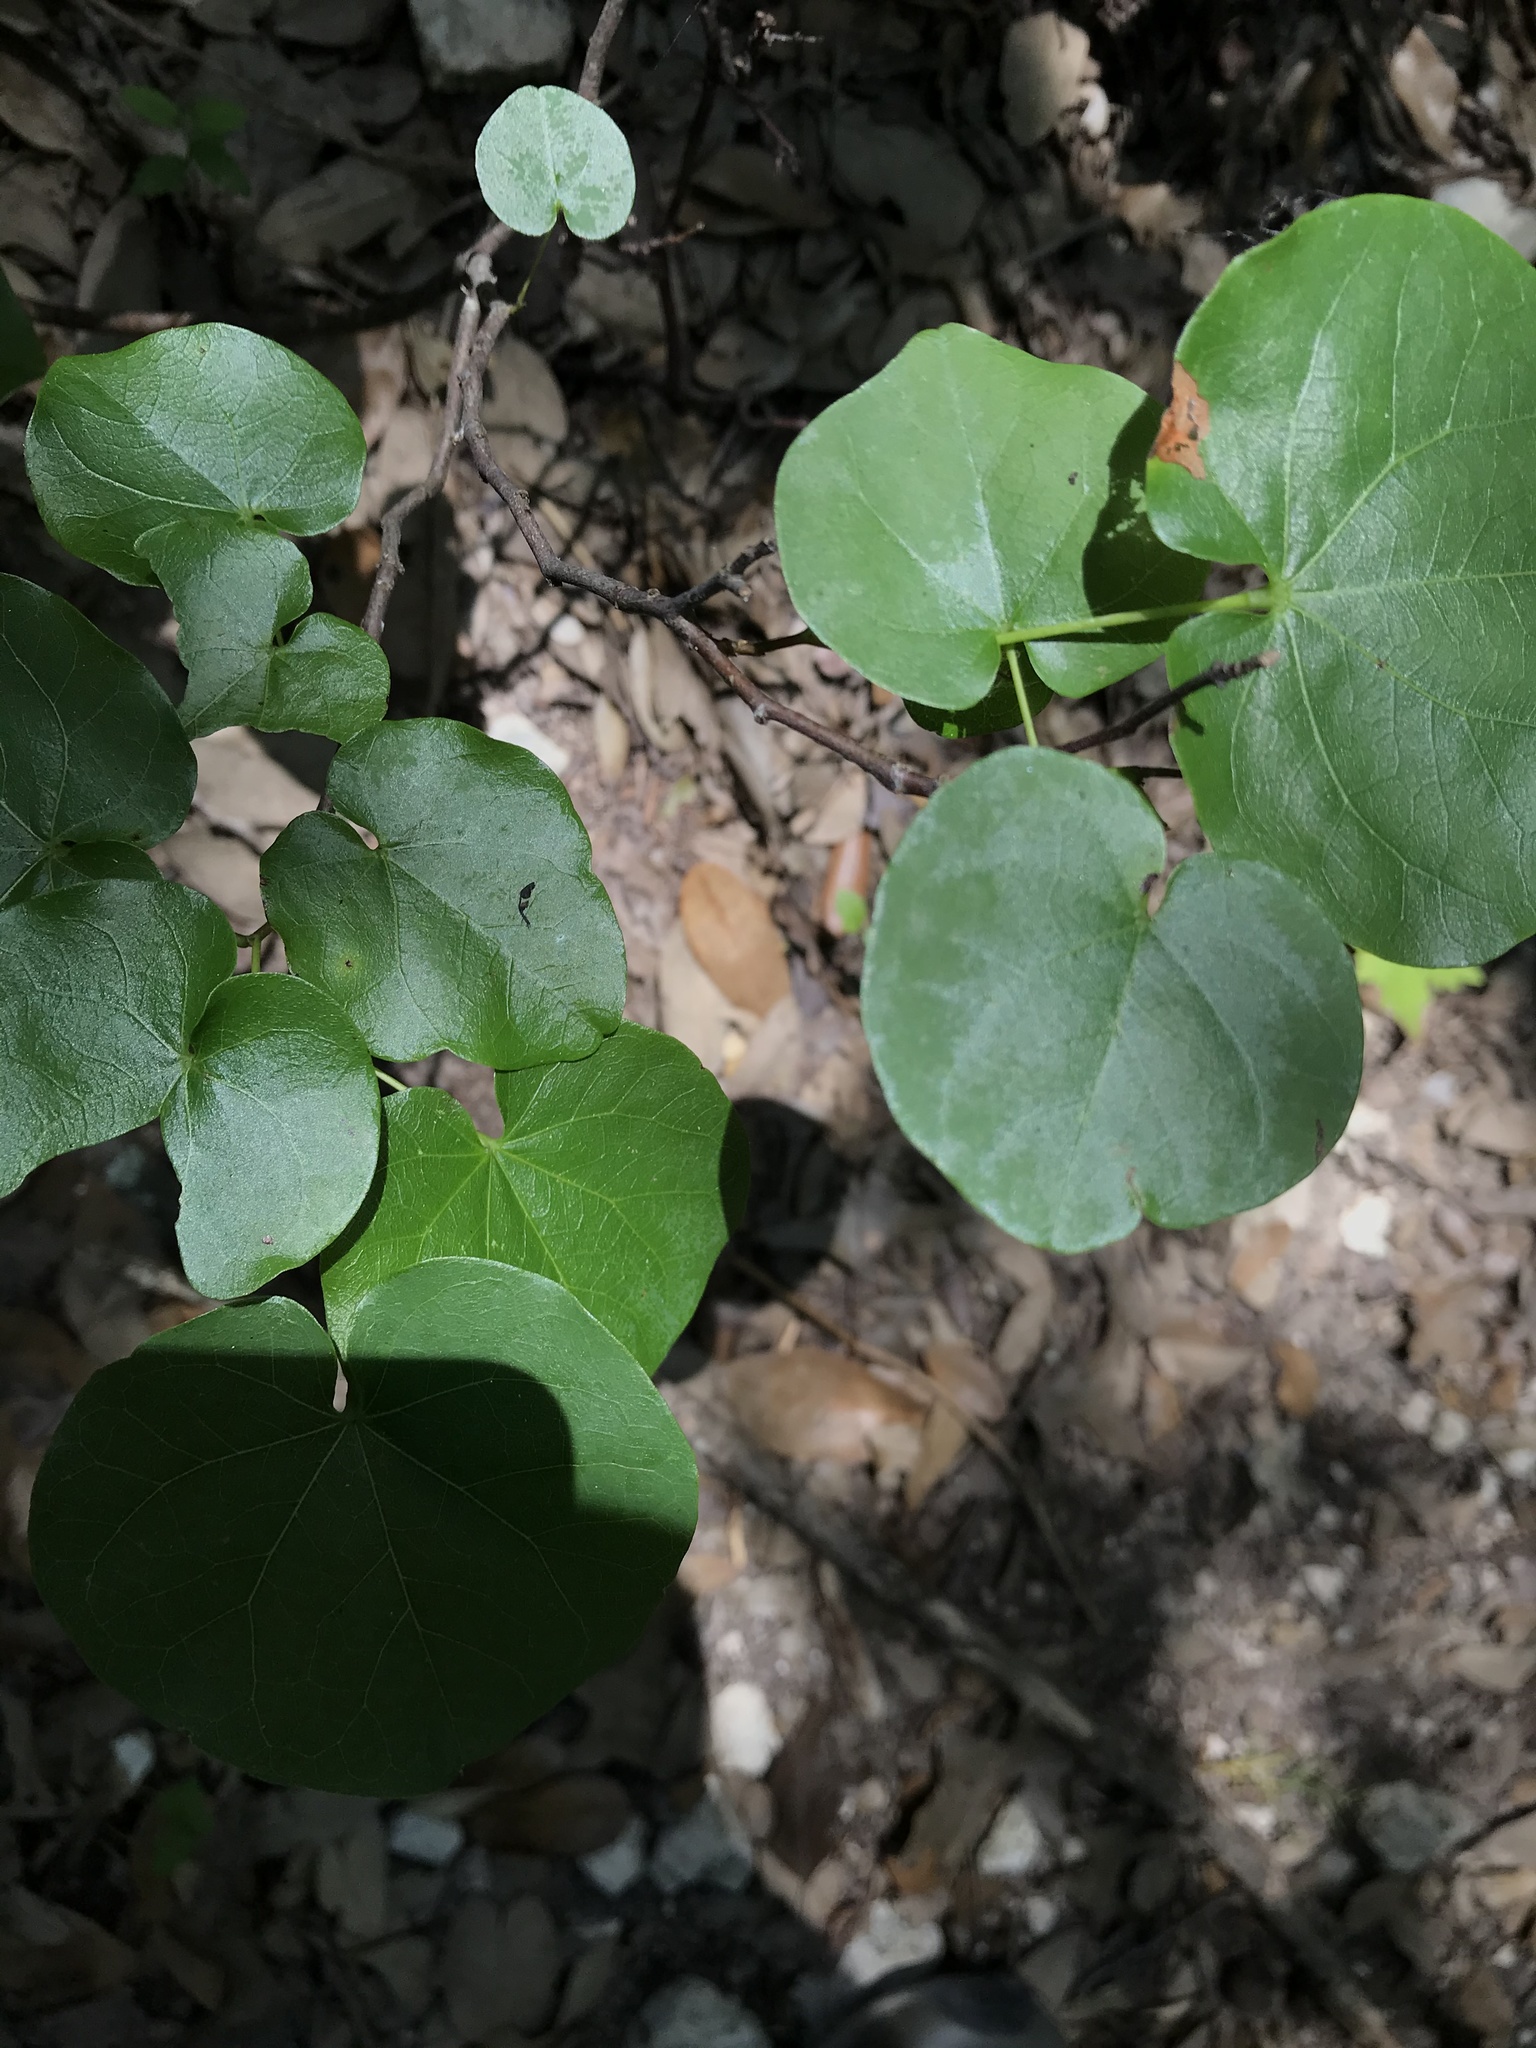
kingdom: Plantae
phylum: Tracheophyta
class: Magnoliopsida
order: Fabales
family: Fabaceae
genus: Cercis
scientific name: Cercis canadensis
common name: Eastern redbud
